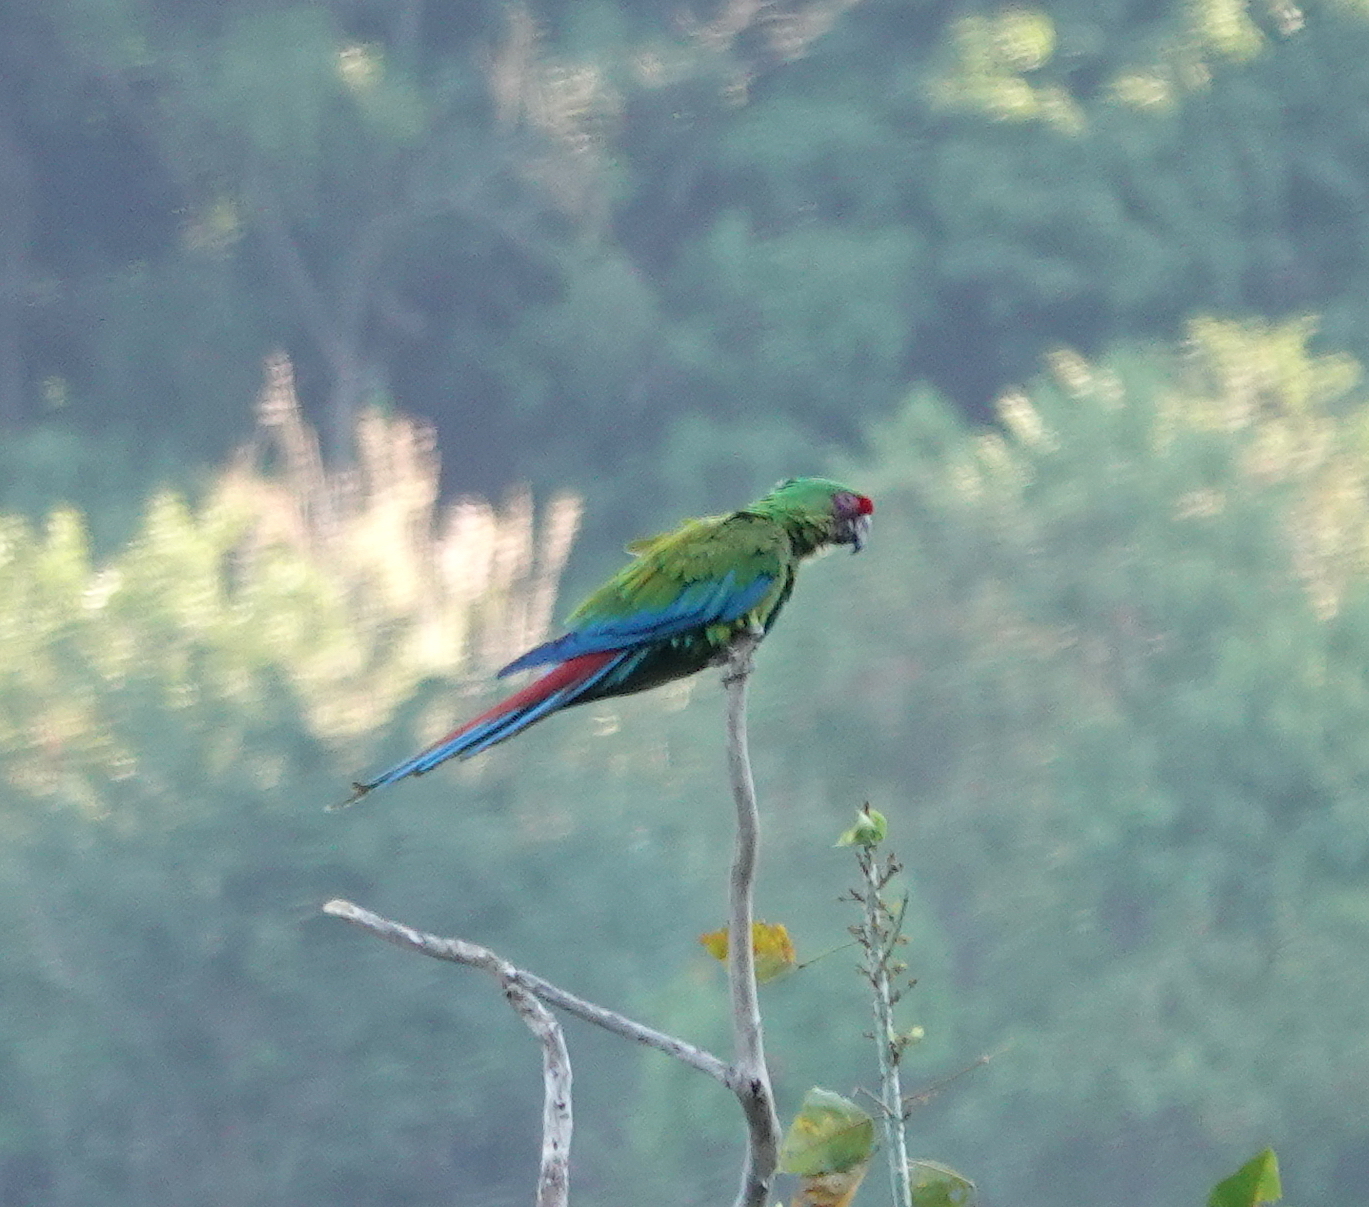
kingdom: Animalia
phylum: Chordata
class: Aves
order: Psittaciformes
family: Psittacidae
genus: Ara
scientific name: Ara militaris
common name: Military macaw
